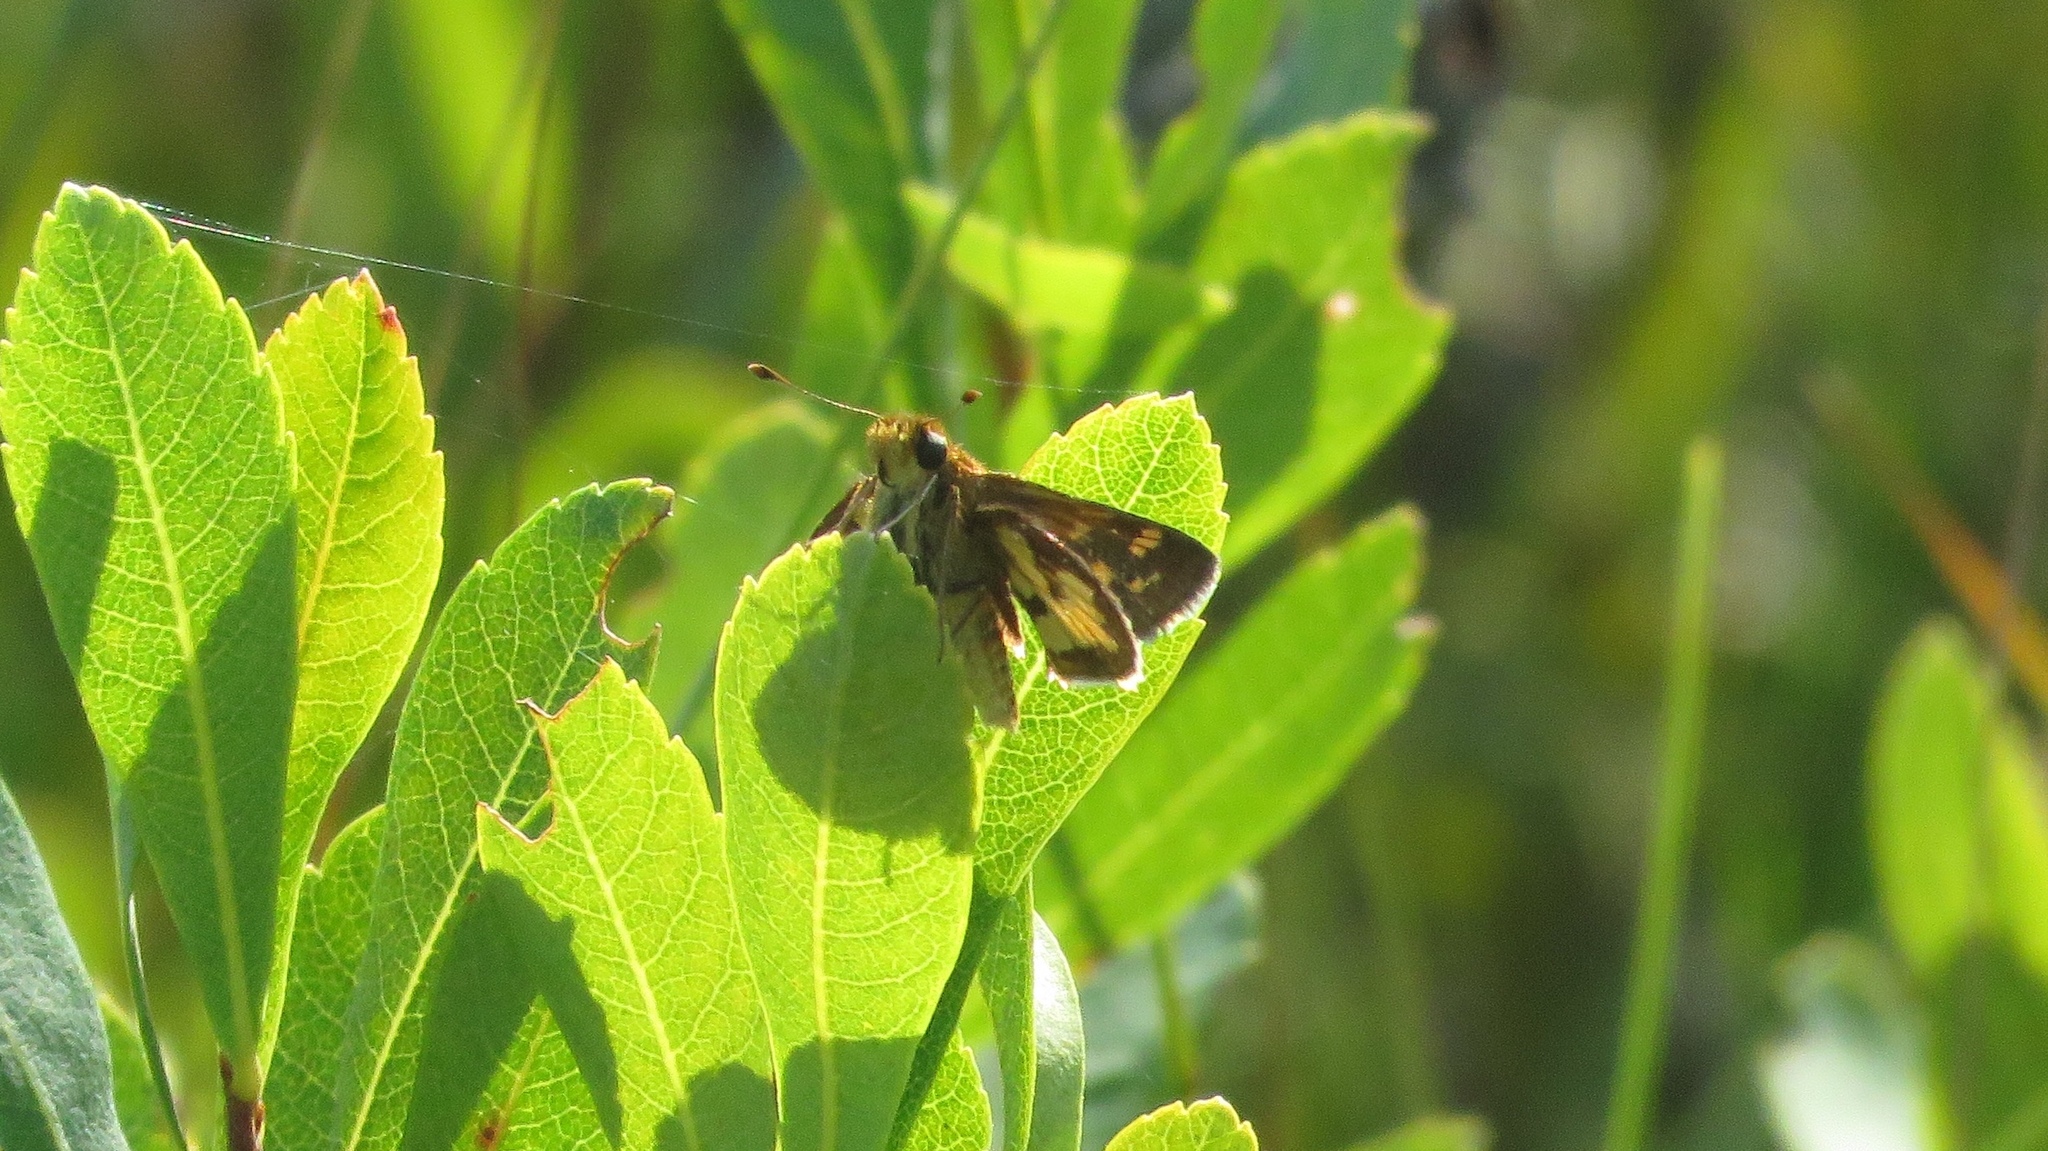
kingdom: Animalia
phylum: Arthropoda
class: Insecta
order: Lepidoptera
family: Hesperiidae
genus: Polites
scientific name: Polites coras
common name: Peck's skipper
